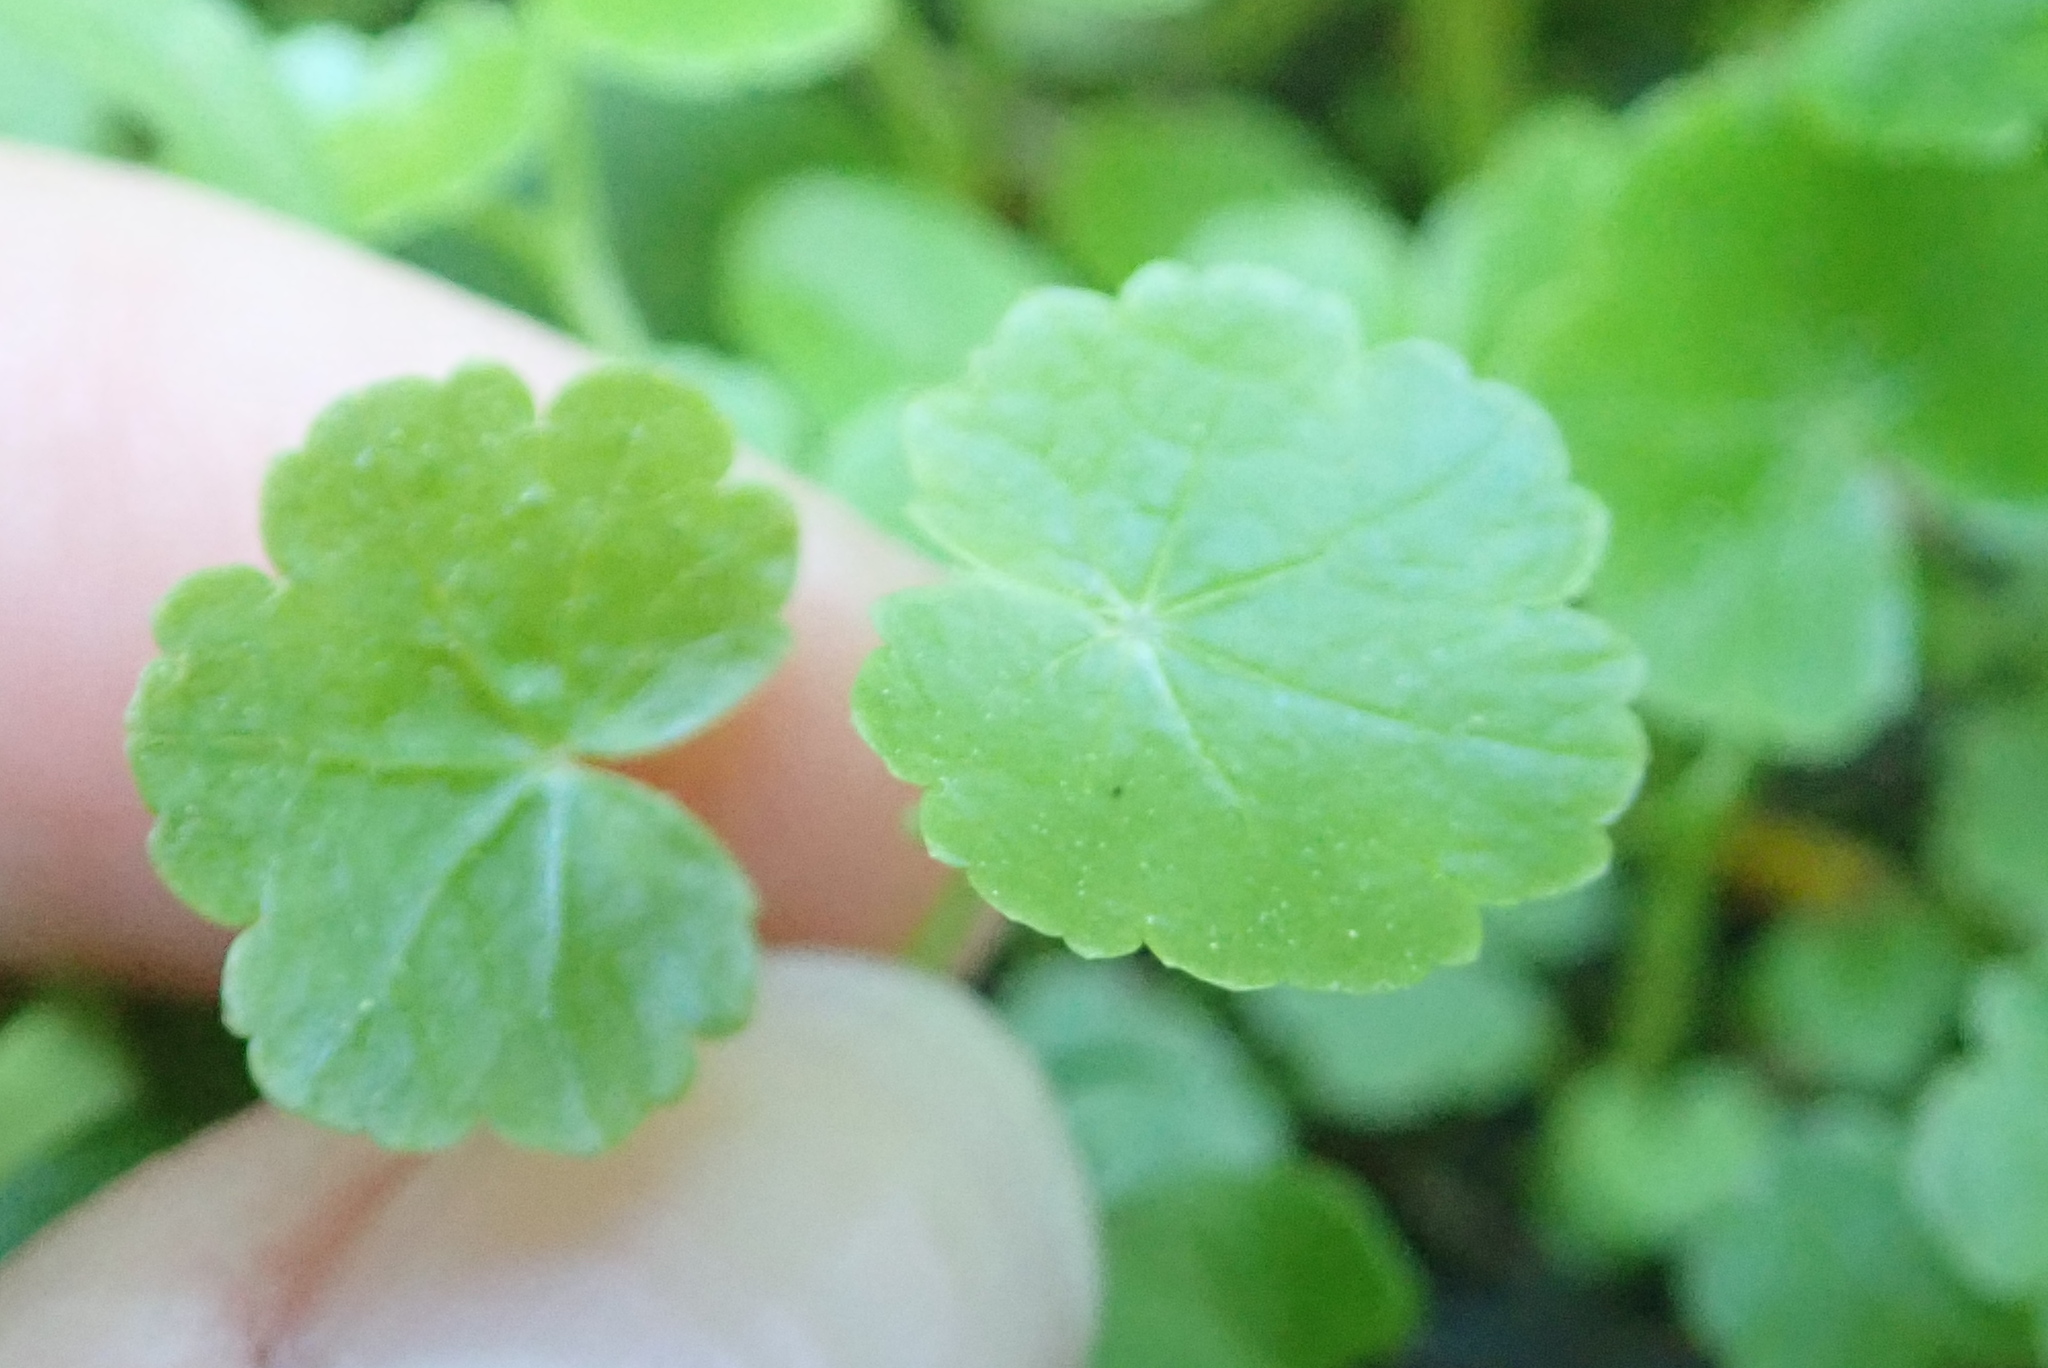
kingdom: Plantae
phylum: Tracheophyta
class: Magnoliopsida
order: Apiales
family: Araliaceae
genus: Hydrocotyle
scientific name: Hydrocotyle americana
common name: American water-pennywort
